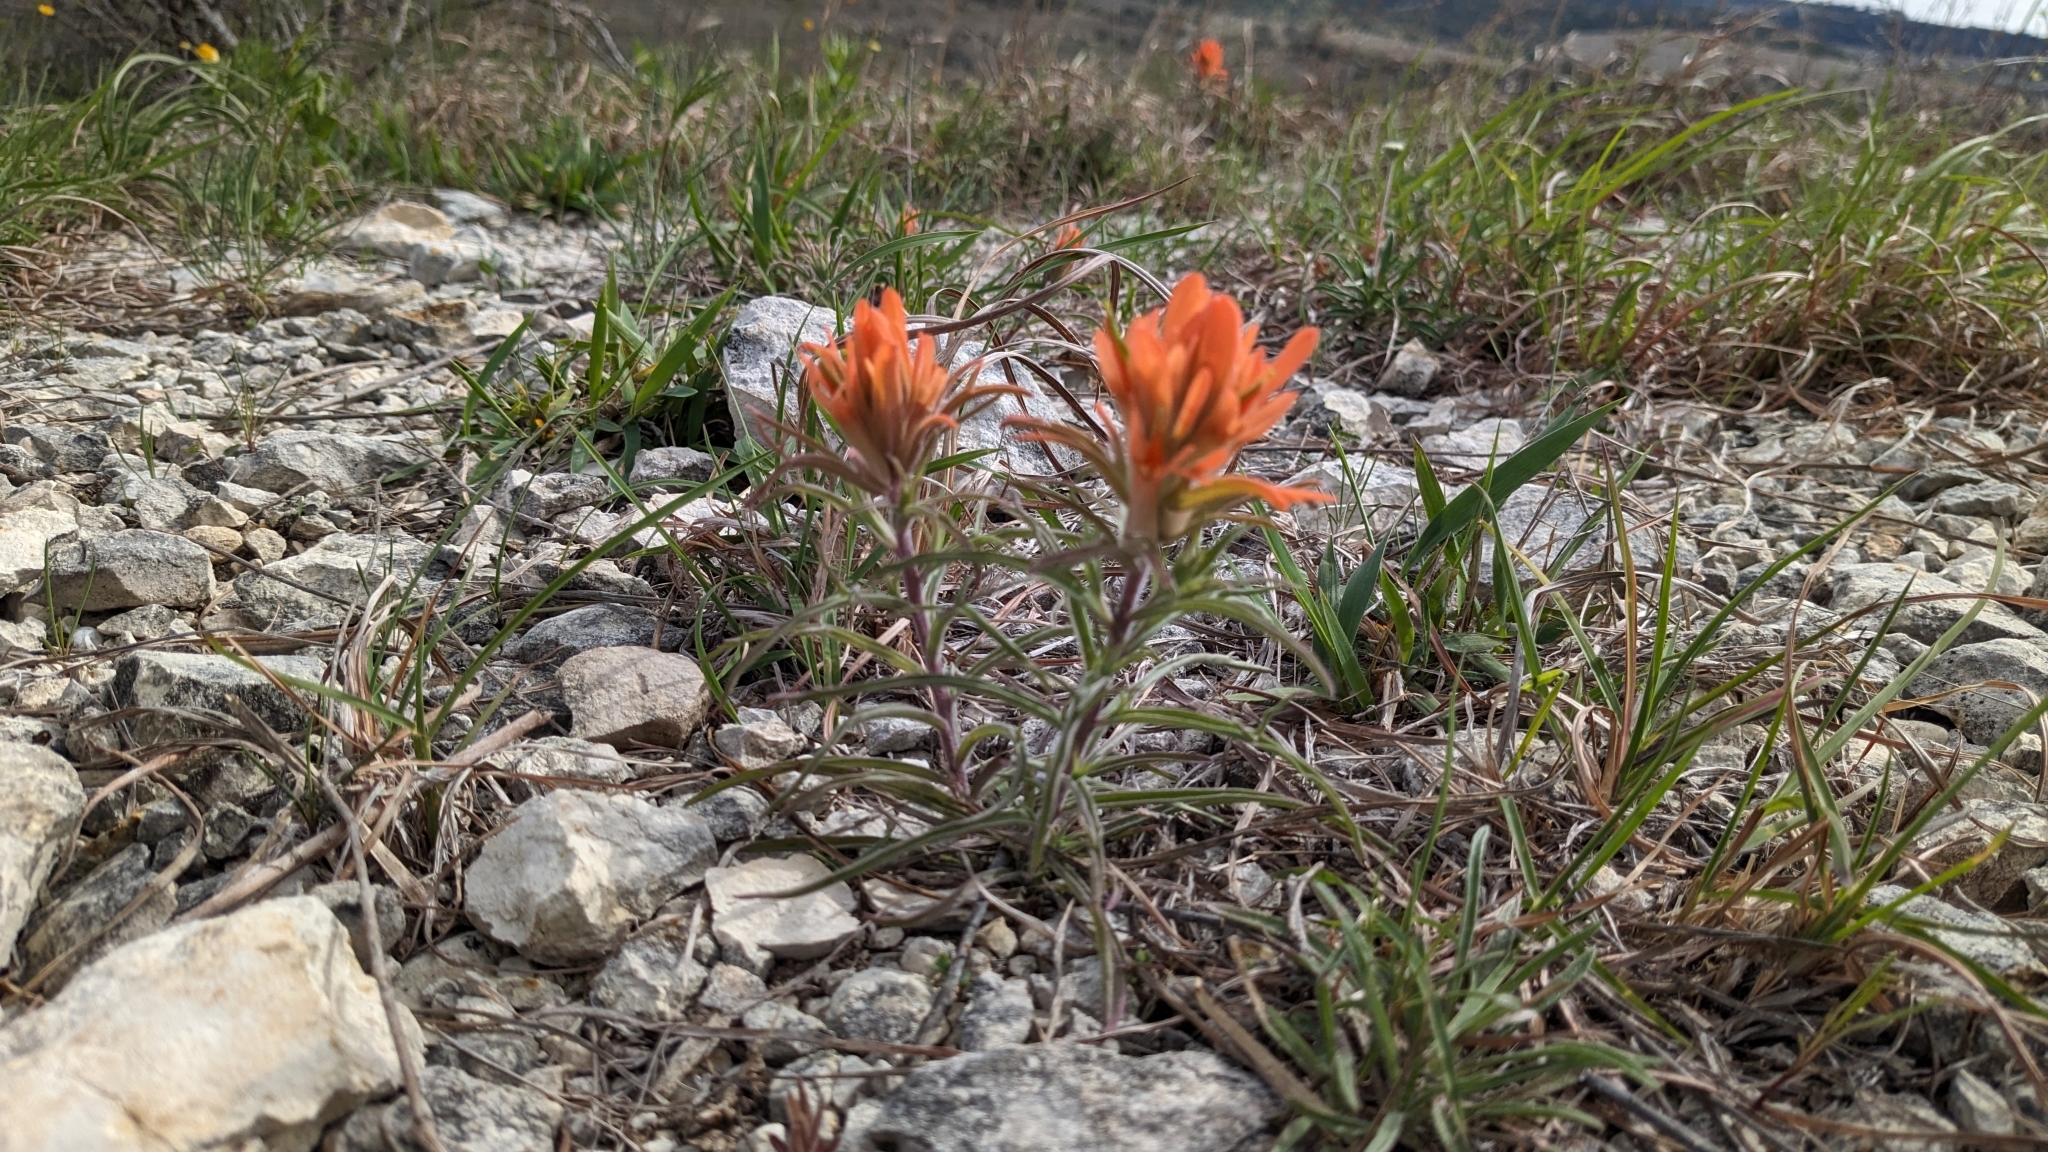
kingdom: Plantae
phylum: Tracheophyta
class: Magnoliopsida
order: Lamiales
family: Orobanchaceae
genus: Castilleja
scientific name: Castilleja lindheimeri
